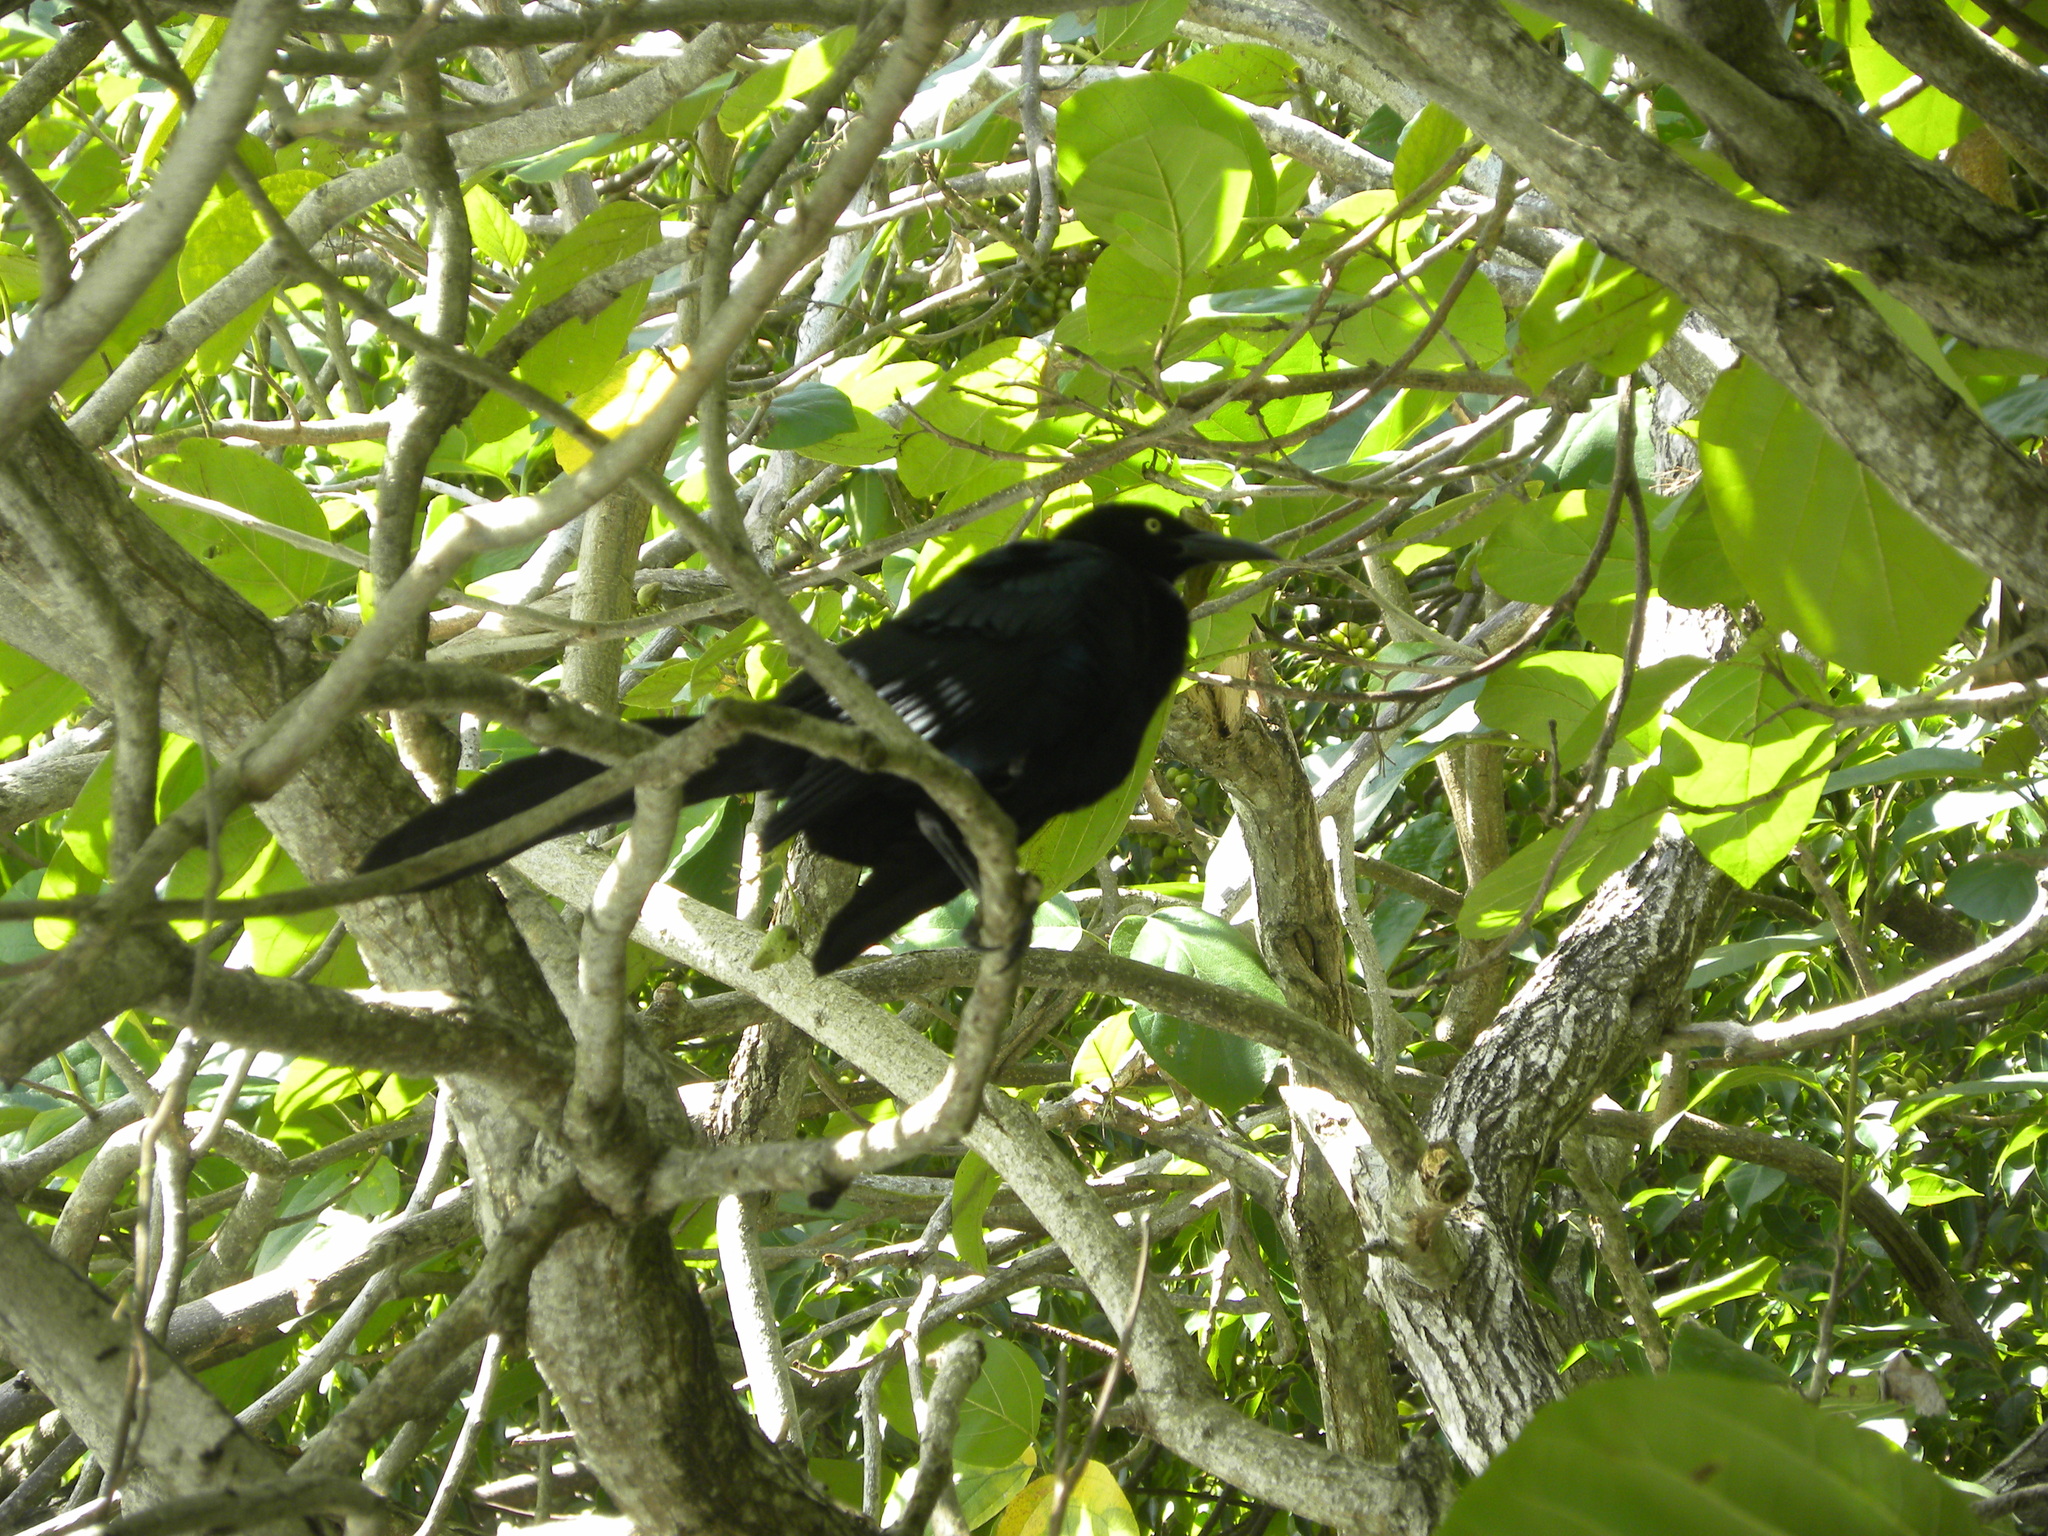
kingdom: Animalia
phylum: Chordata
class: Aves
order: Passeriformes
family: Icteridae
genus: Quiscalus
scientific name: Quiscalus mexicanus
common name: Great-tailed grackle
